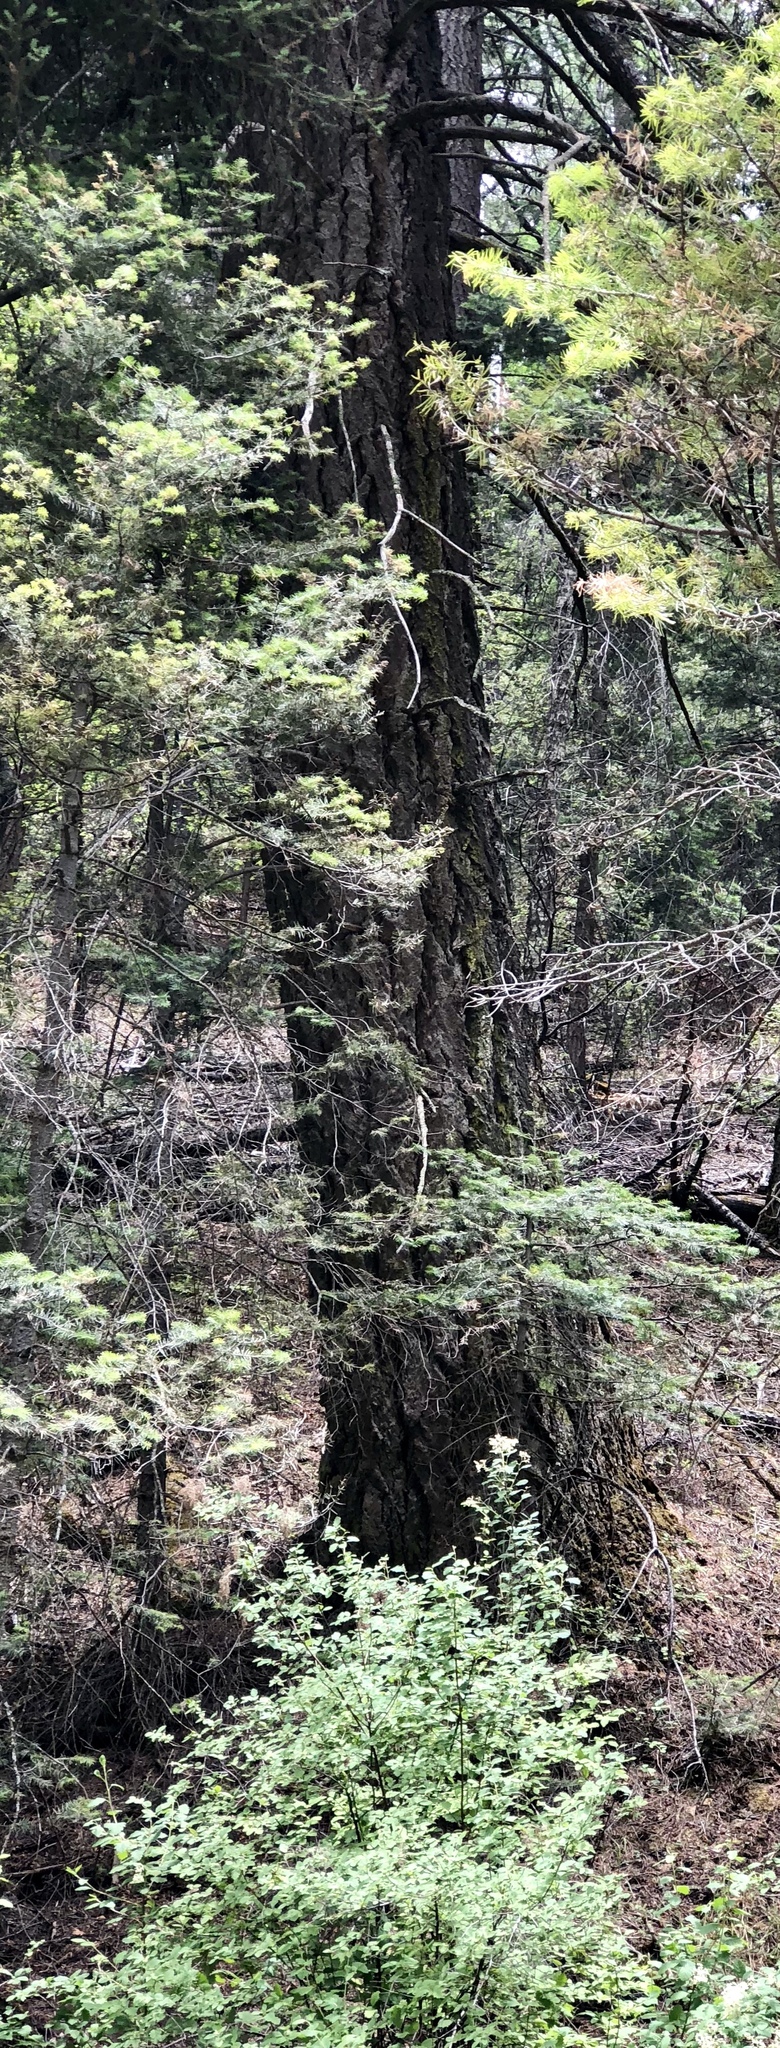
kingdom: Plantae
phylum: Tracheophyta
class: Pinopsida
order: Pinales
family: Pinaceae
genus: Pseudotsuga
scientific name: Pseudotsuga menziesii
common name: Douglas fir
